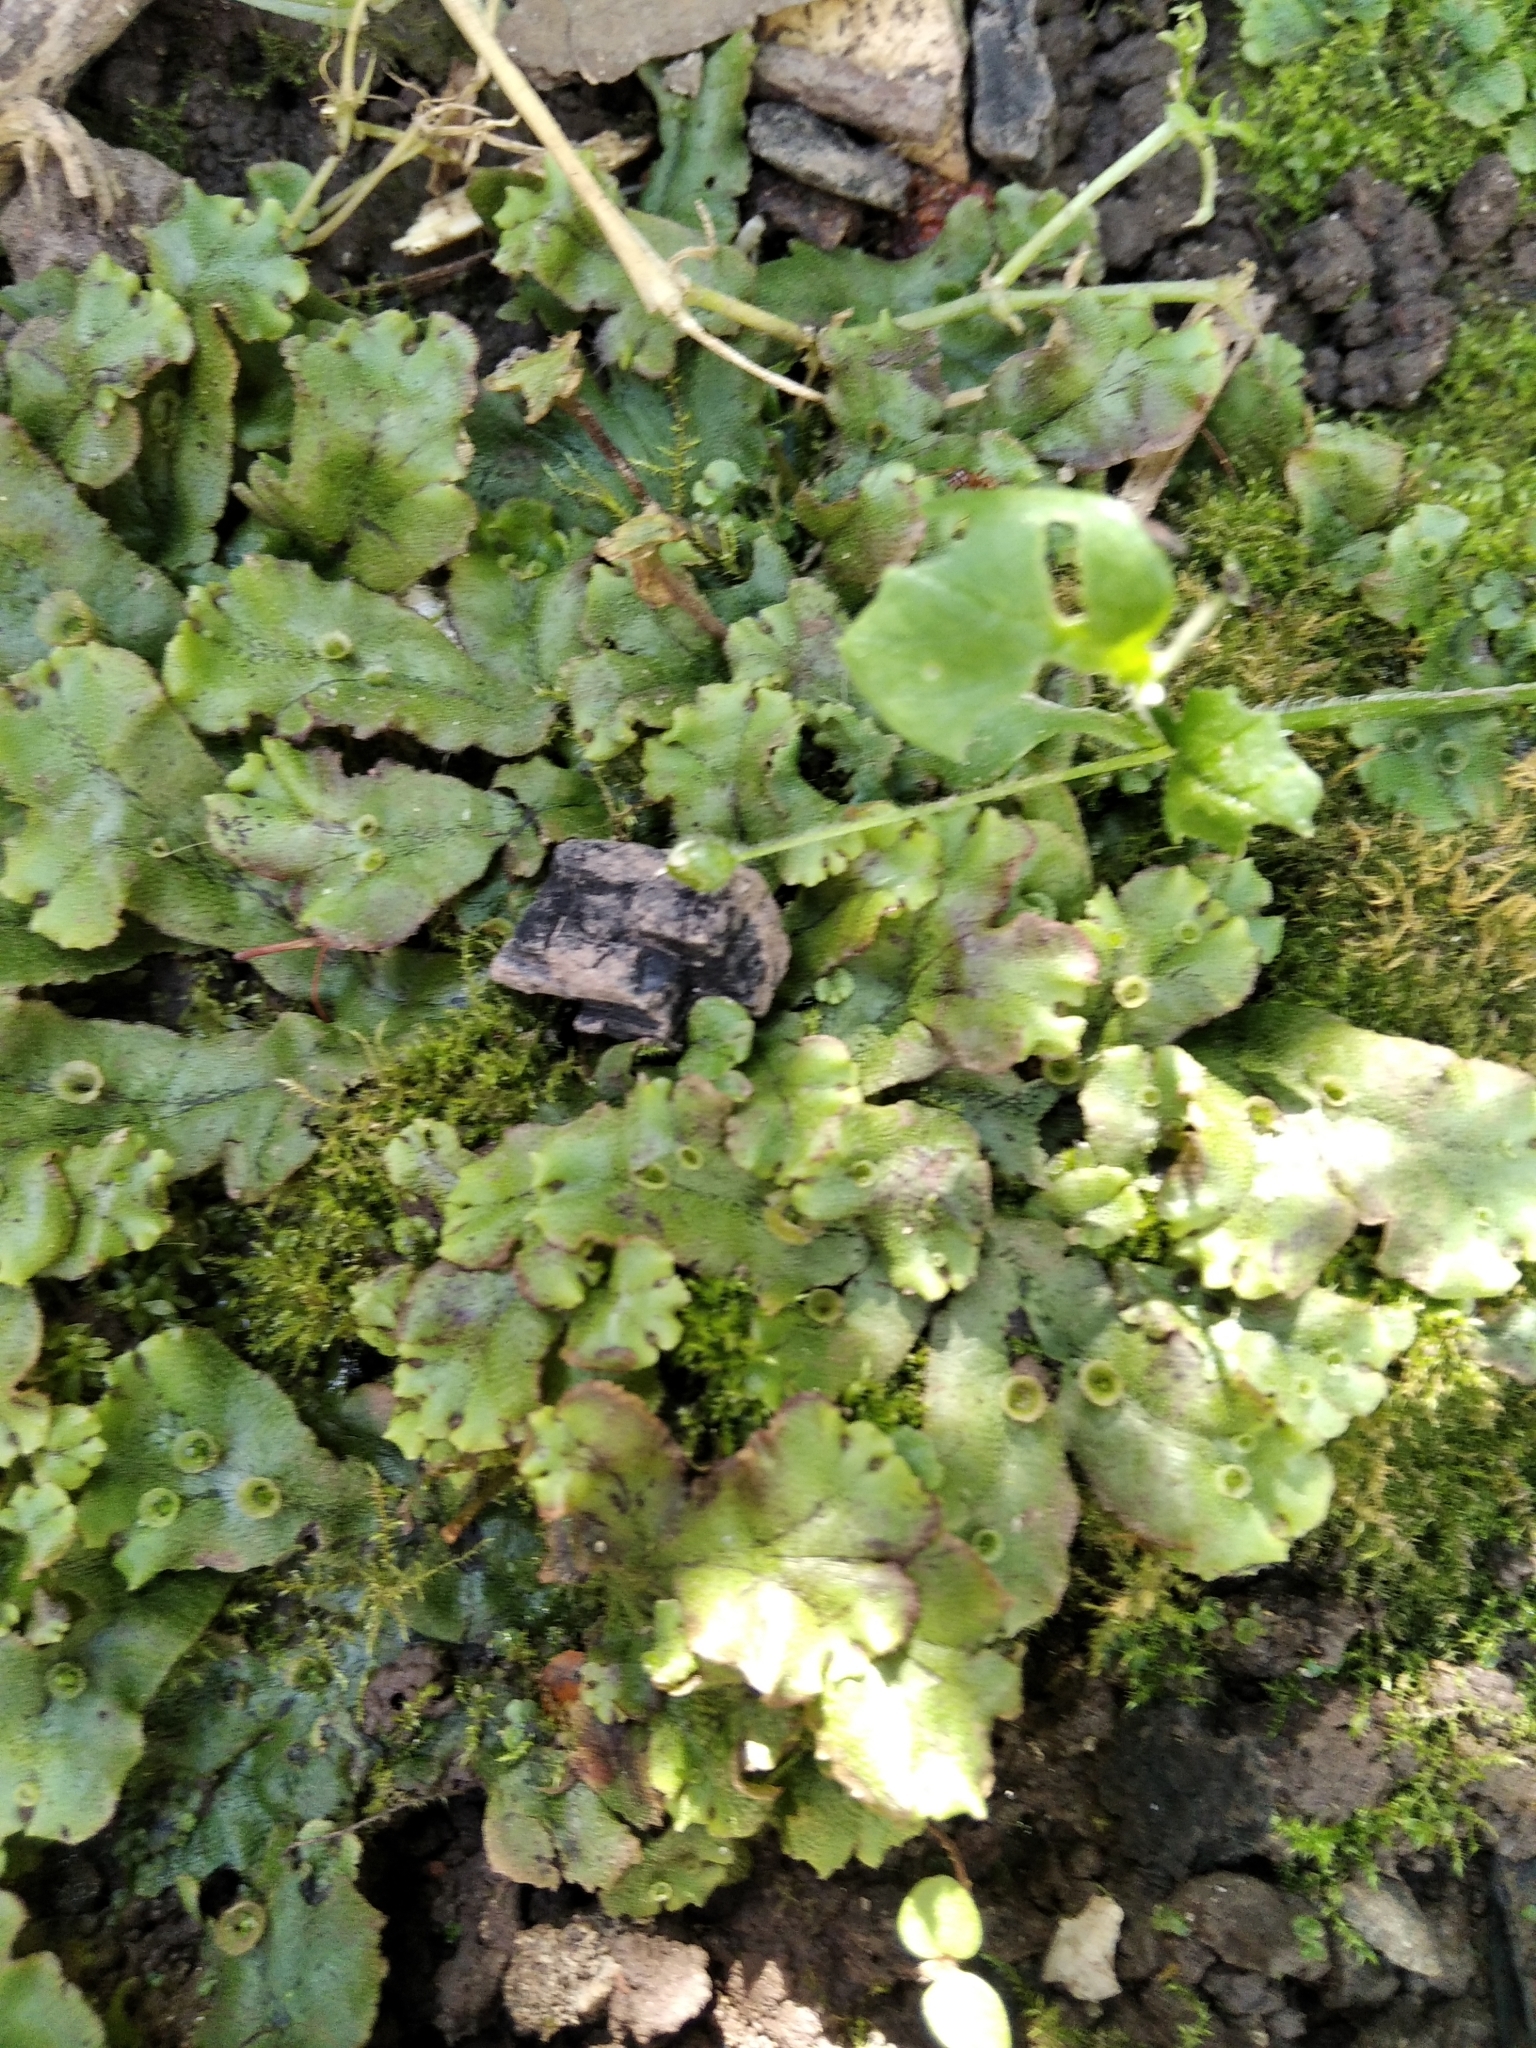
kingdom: Plantae
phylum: Marchantiophyta
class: Marchantiopsida
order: Marchantiales
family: Marchantiaceae
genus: Marchantia
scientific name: Marchantia polymorpha
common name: Common liverwort
